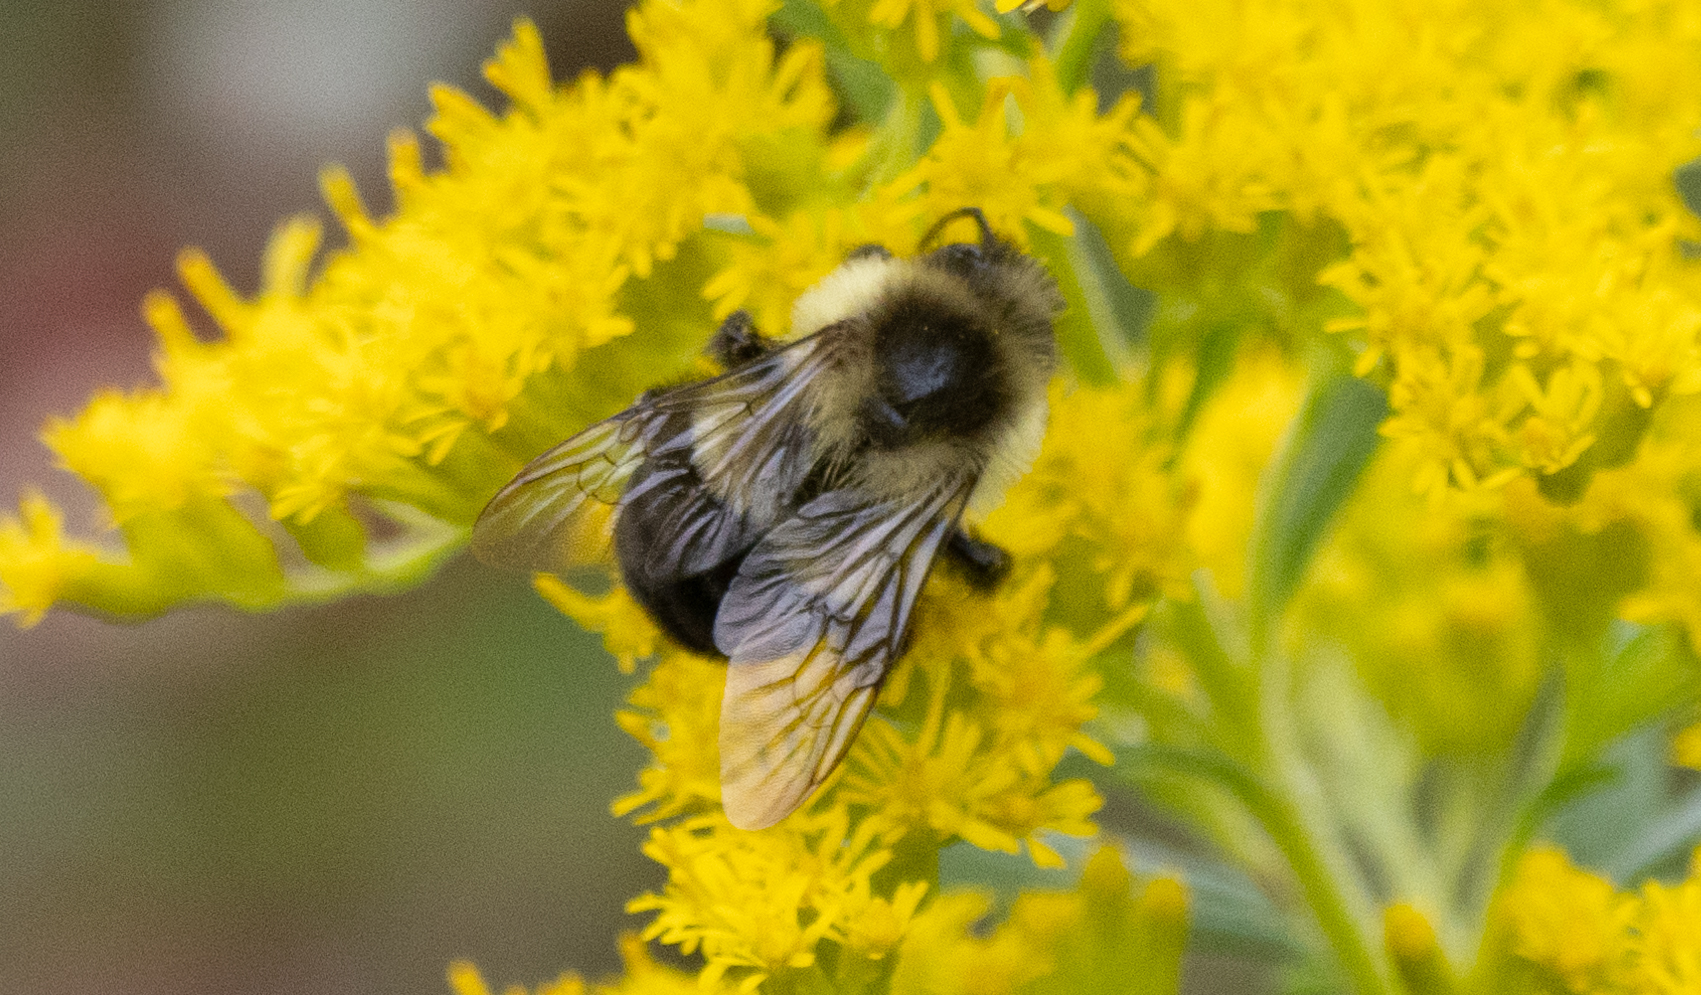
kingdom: Animalia
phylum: Arthropoda
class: Insecta
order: Hymenoptera
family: Apidae
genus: Bombus
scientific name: Bombus impatiens
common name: Common eastern bumble bee
